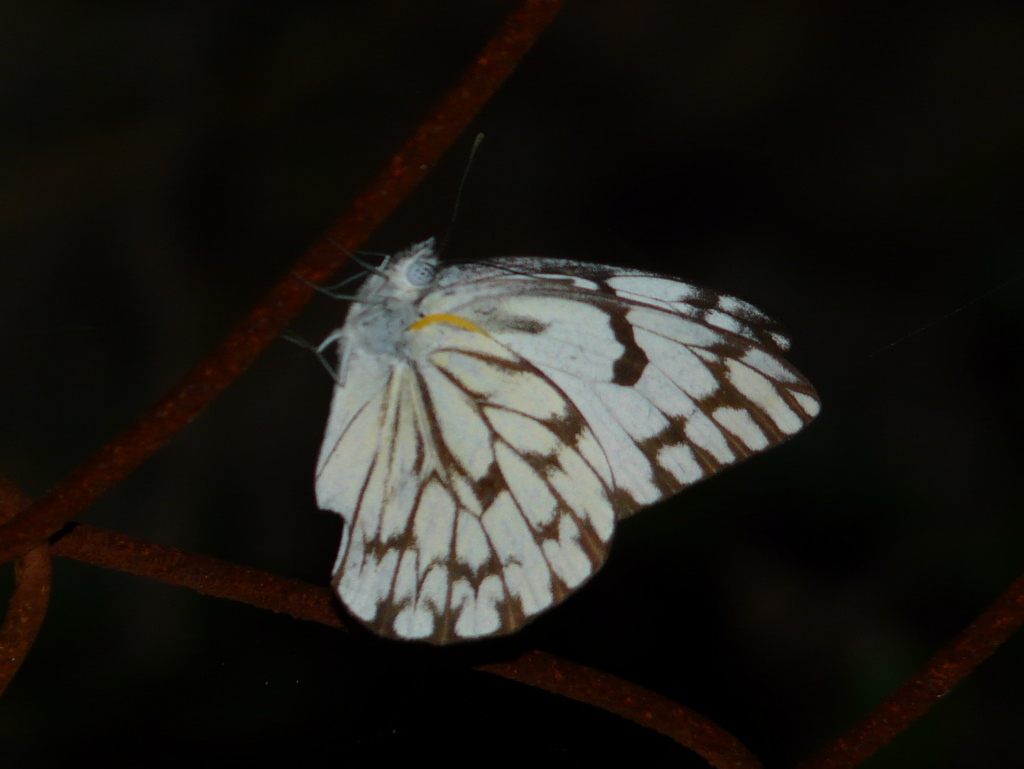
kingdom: Animalia
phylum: Arthropoda
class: Insecta
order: Lepidoptera
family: Pieridae
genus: Belenois
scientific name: Belenois gidica
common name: Pointed caper white
